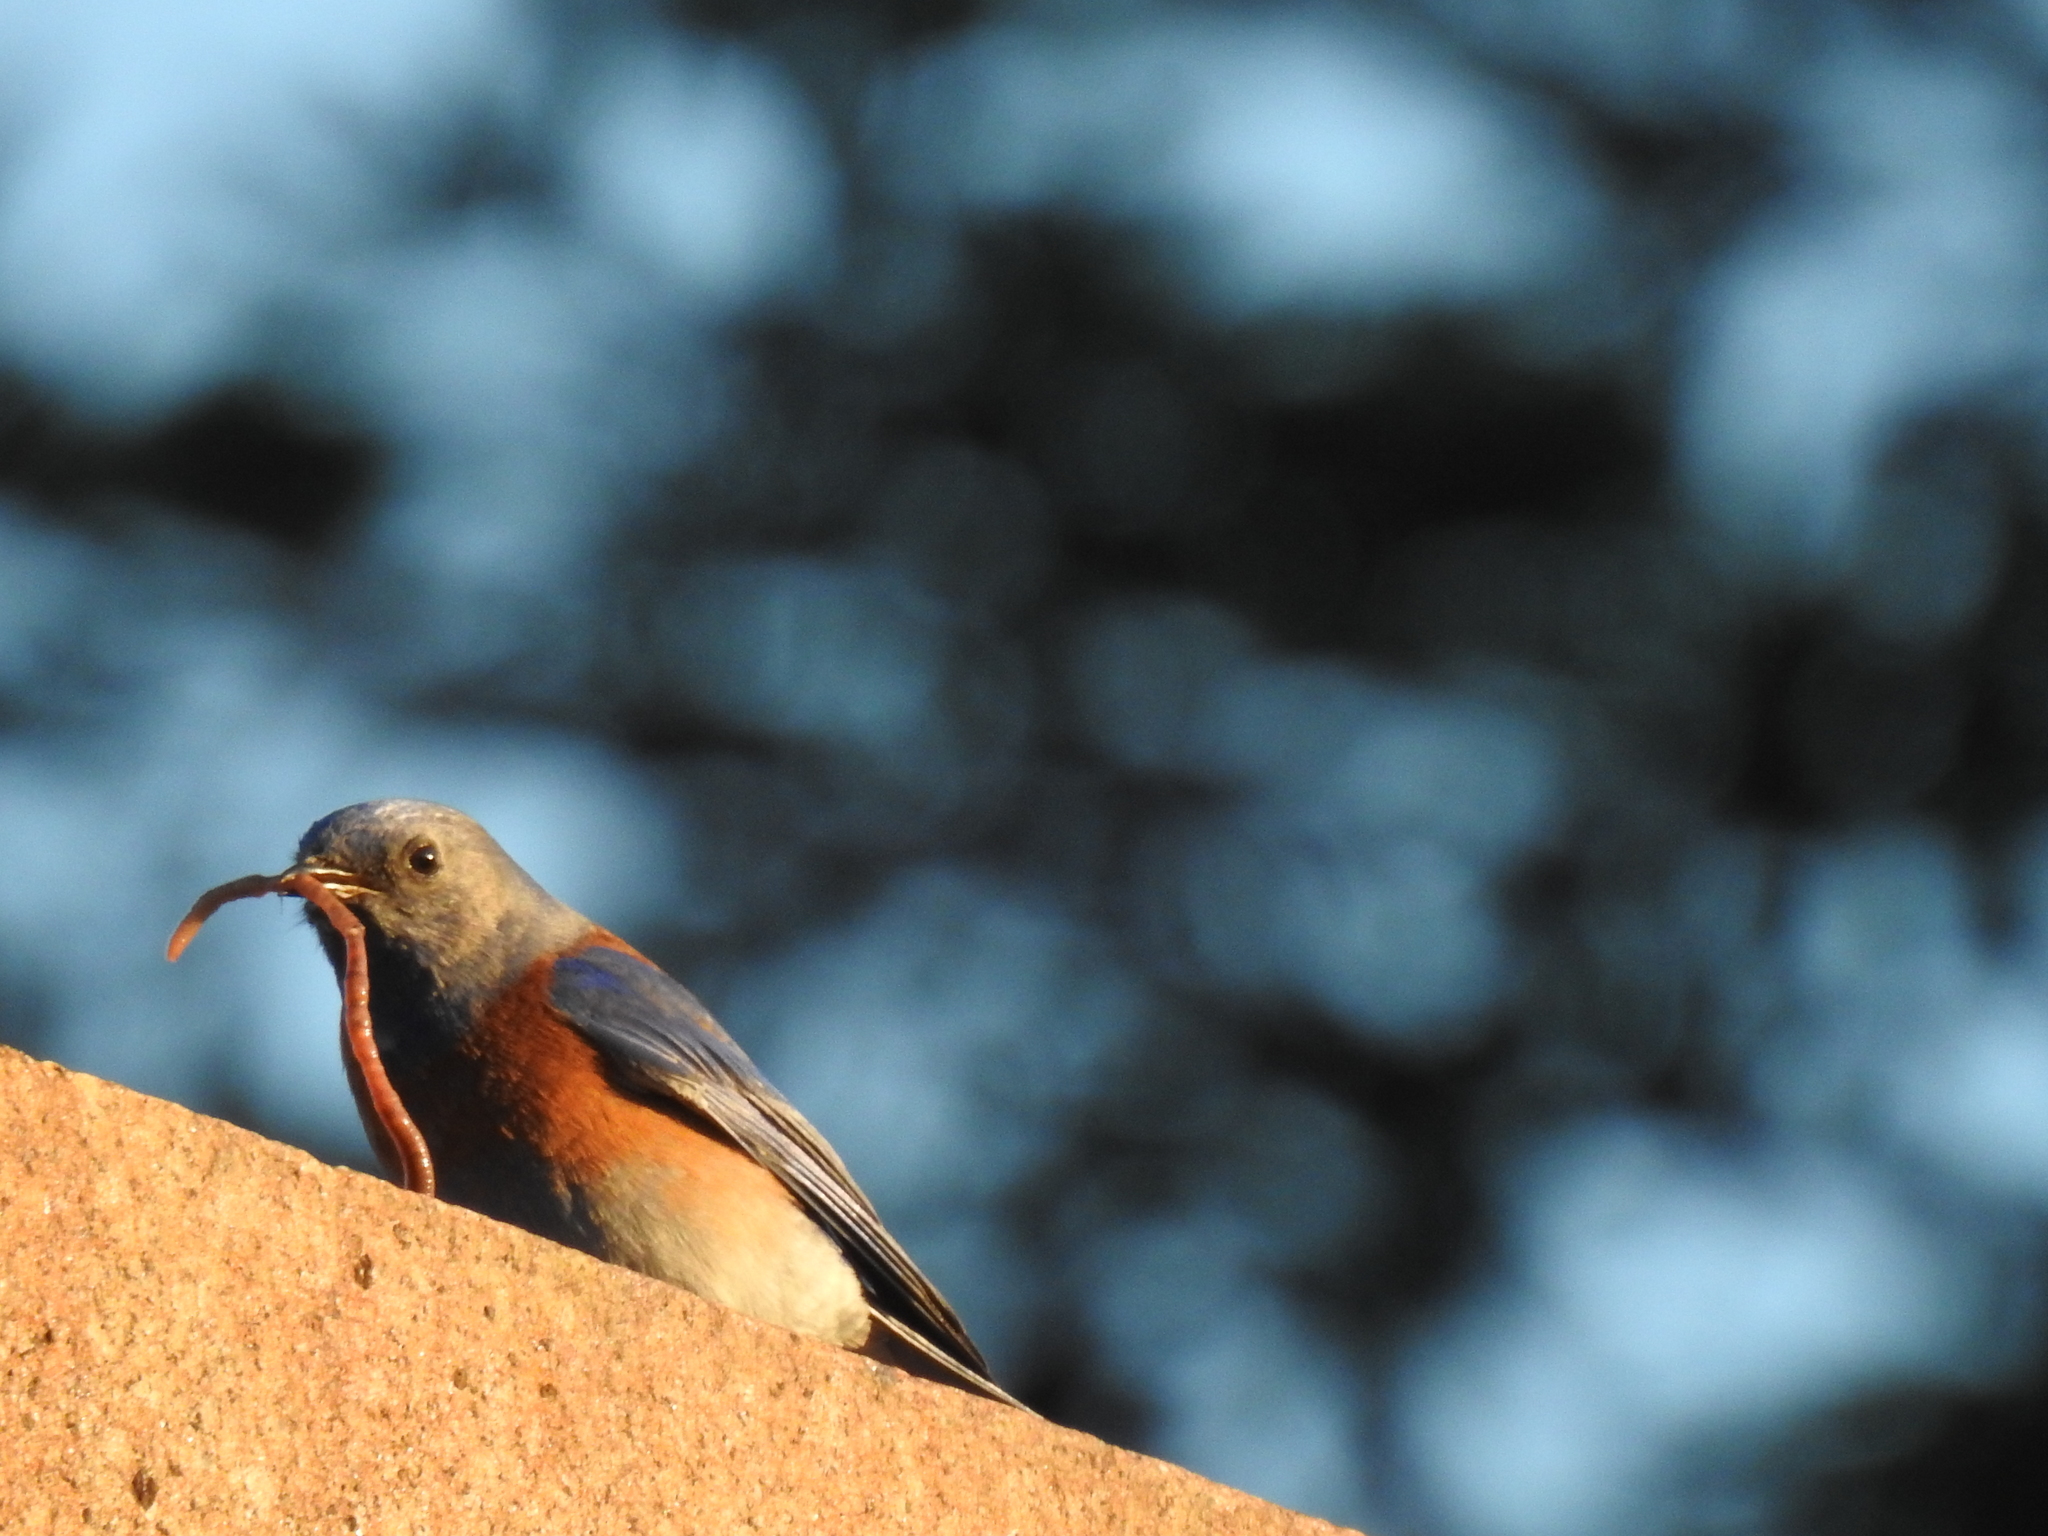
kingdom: Animalia
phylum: Chordata
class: Aves
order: Passeriformes
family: Turdidae
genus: Sialia
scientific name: Sialia mexicana
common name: Western bluebird
